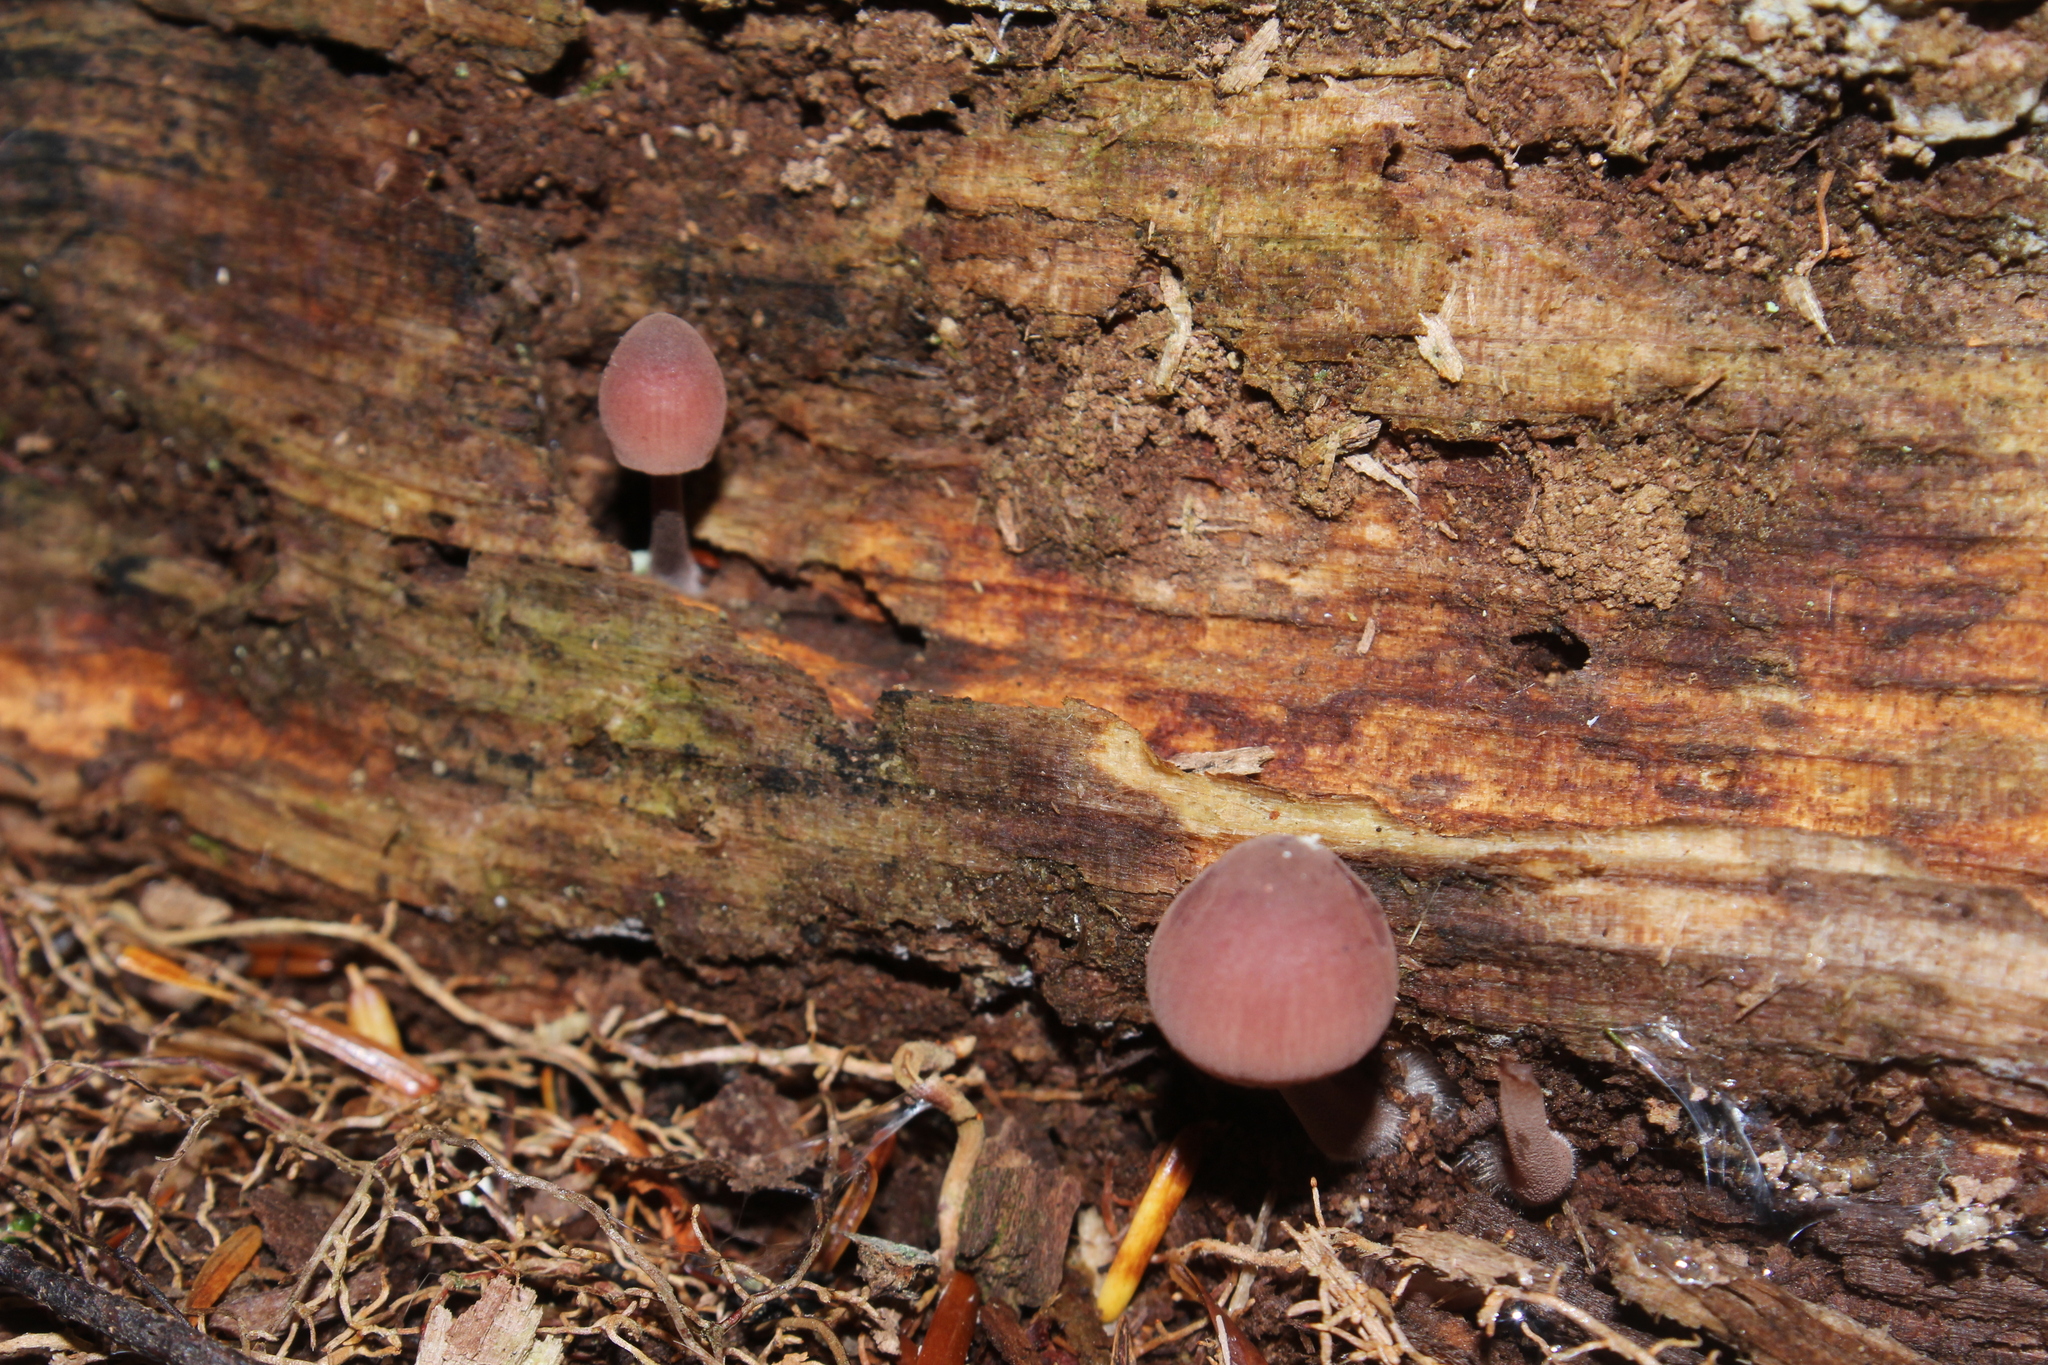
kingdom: Fungi
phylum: Basidiomycota
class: Agaricomycetes
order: Agaricales
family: Mycenaceae
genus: Mycena
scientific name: Mycena haematopus
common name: Burgundydrop bonnet
